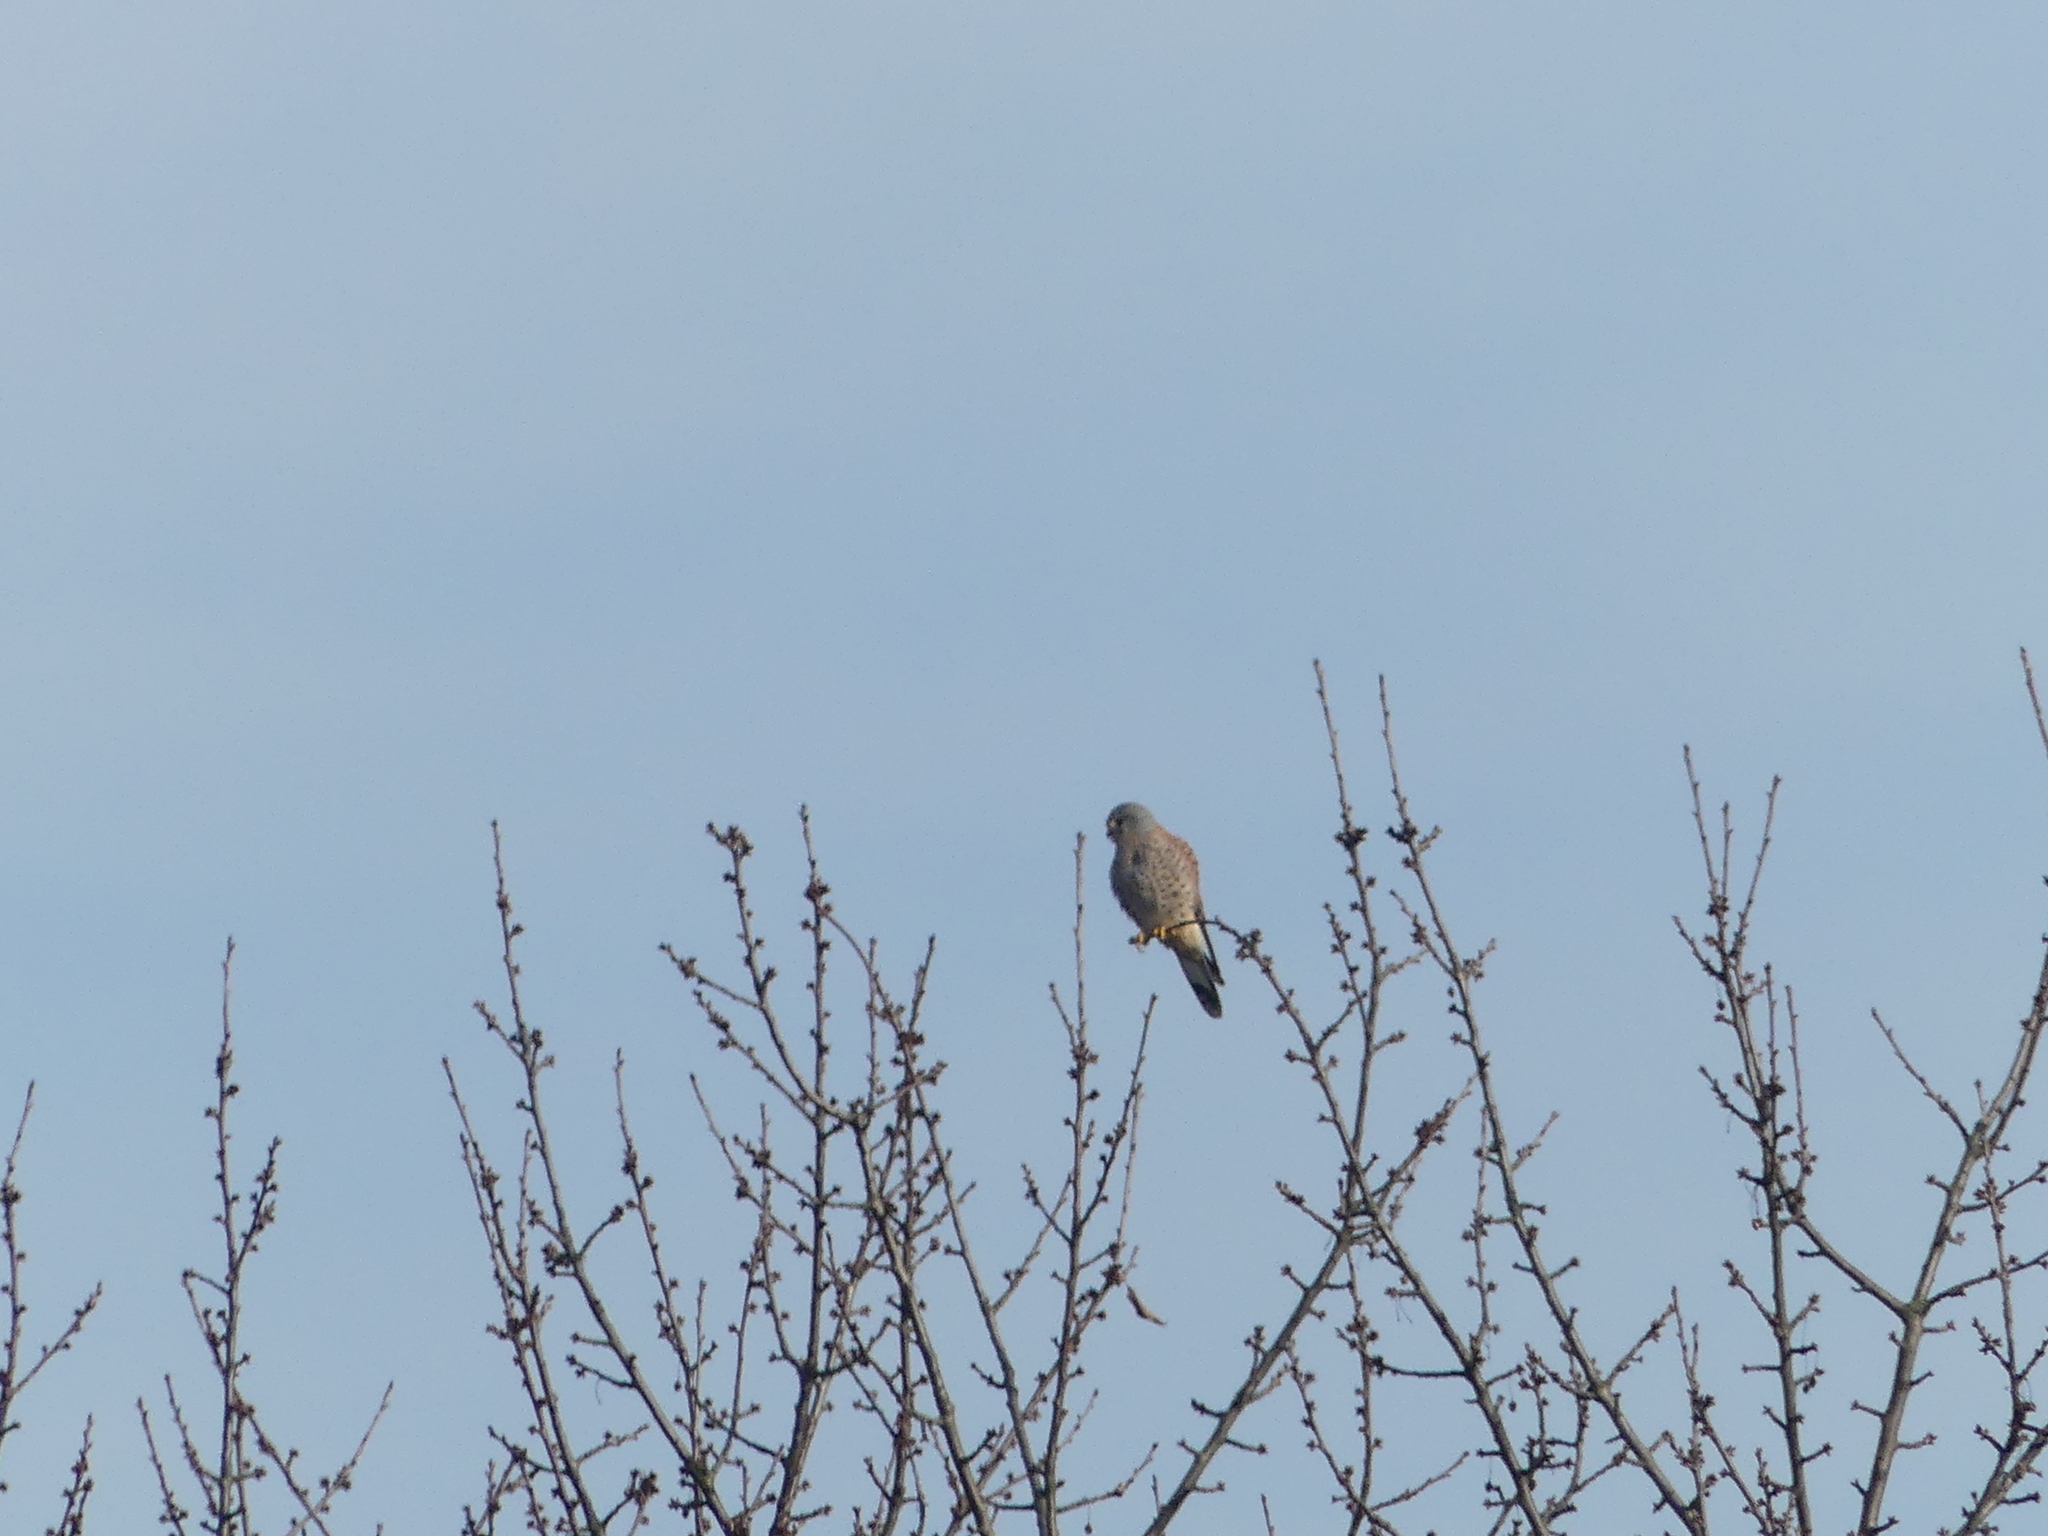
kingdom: Animalia
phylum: Chordata
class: Aves
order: Falconiformes
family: Falconidae
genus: Falco
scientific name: Falco tinnunculus
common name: Common kestrel
